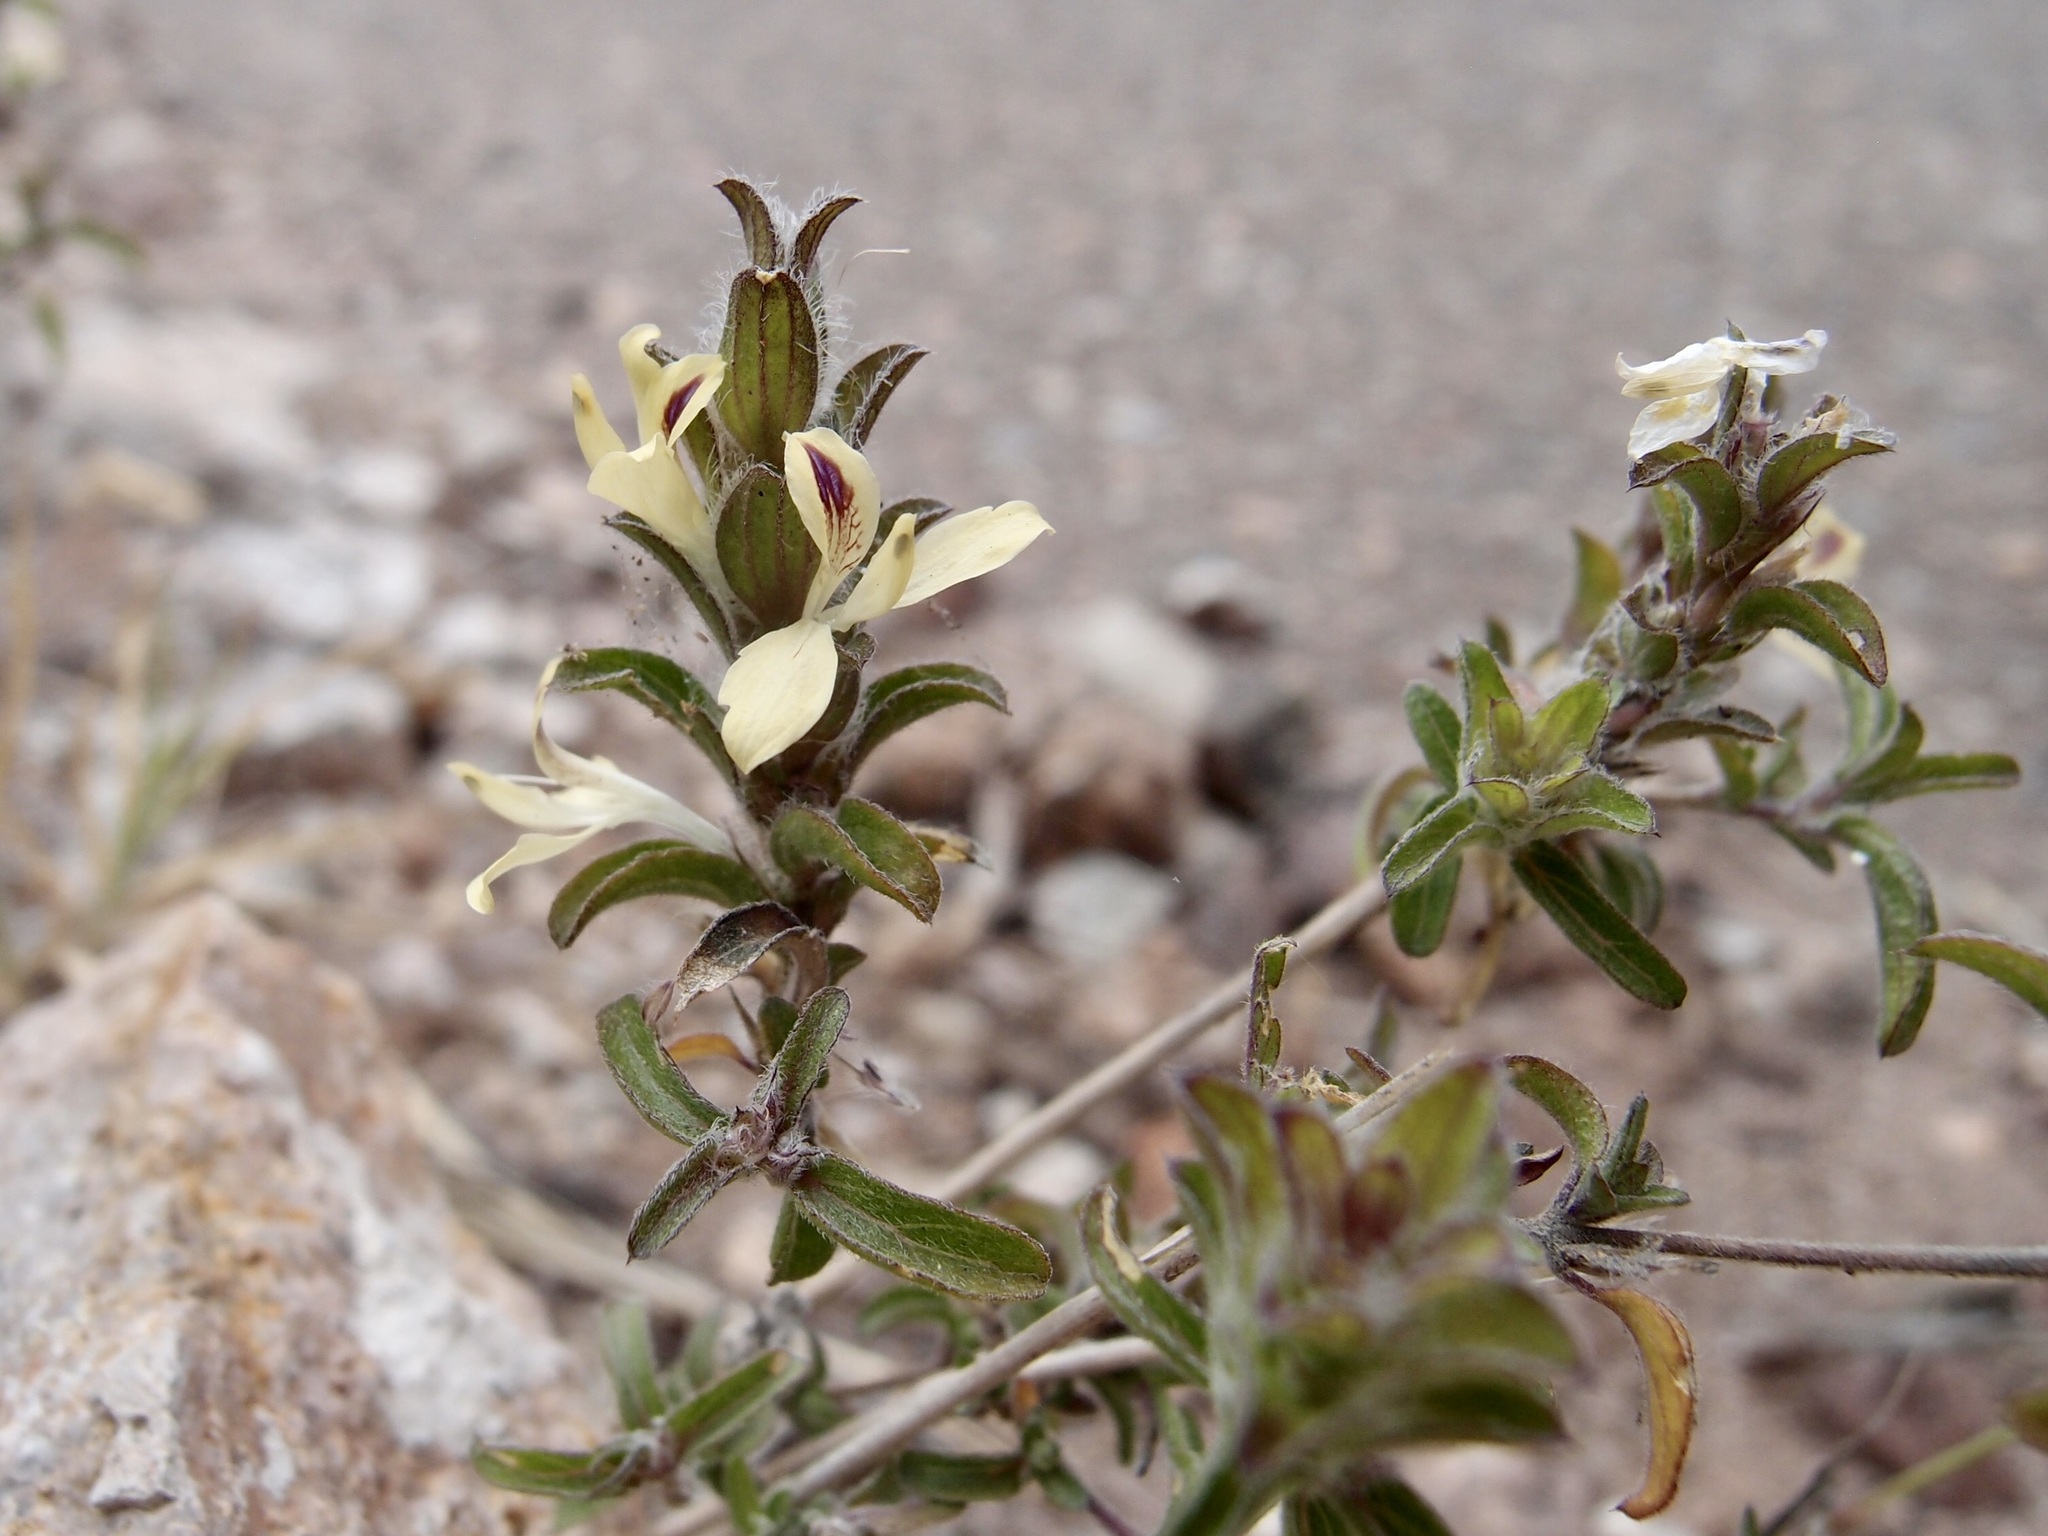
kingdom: Plantae
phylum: Tracheophyta
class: Magnoliopsida
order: Lamiales
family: Acanthaceae
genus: Tetramerium
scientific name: Tetramerium nervosum
